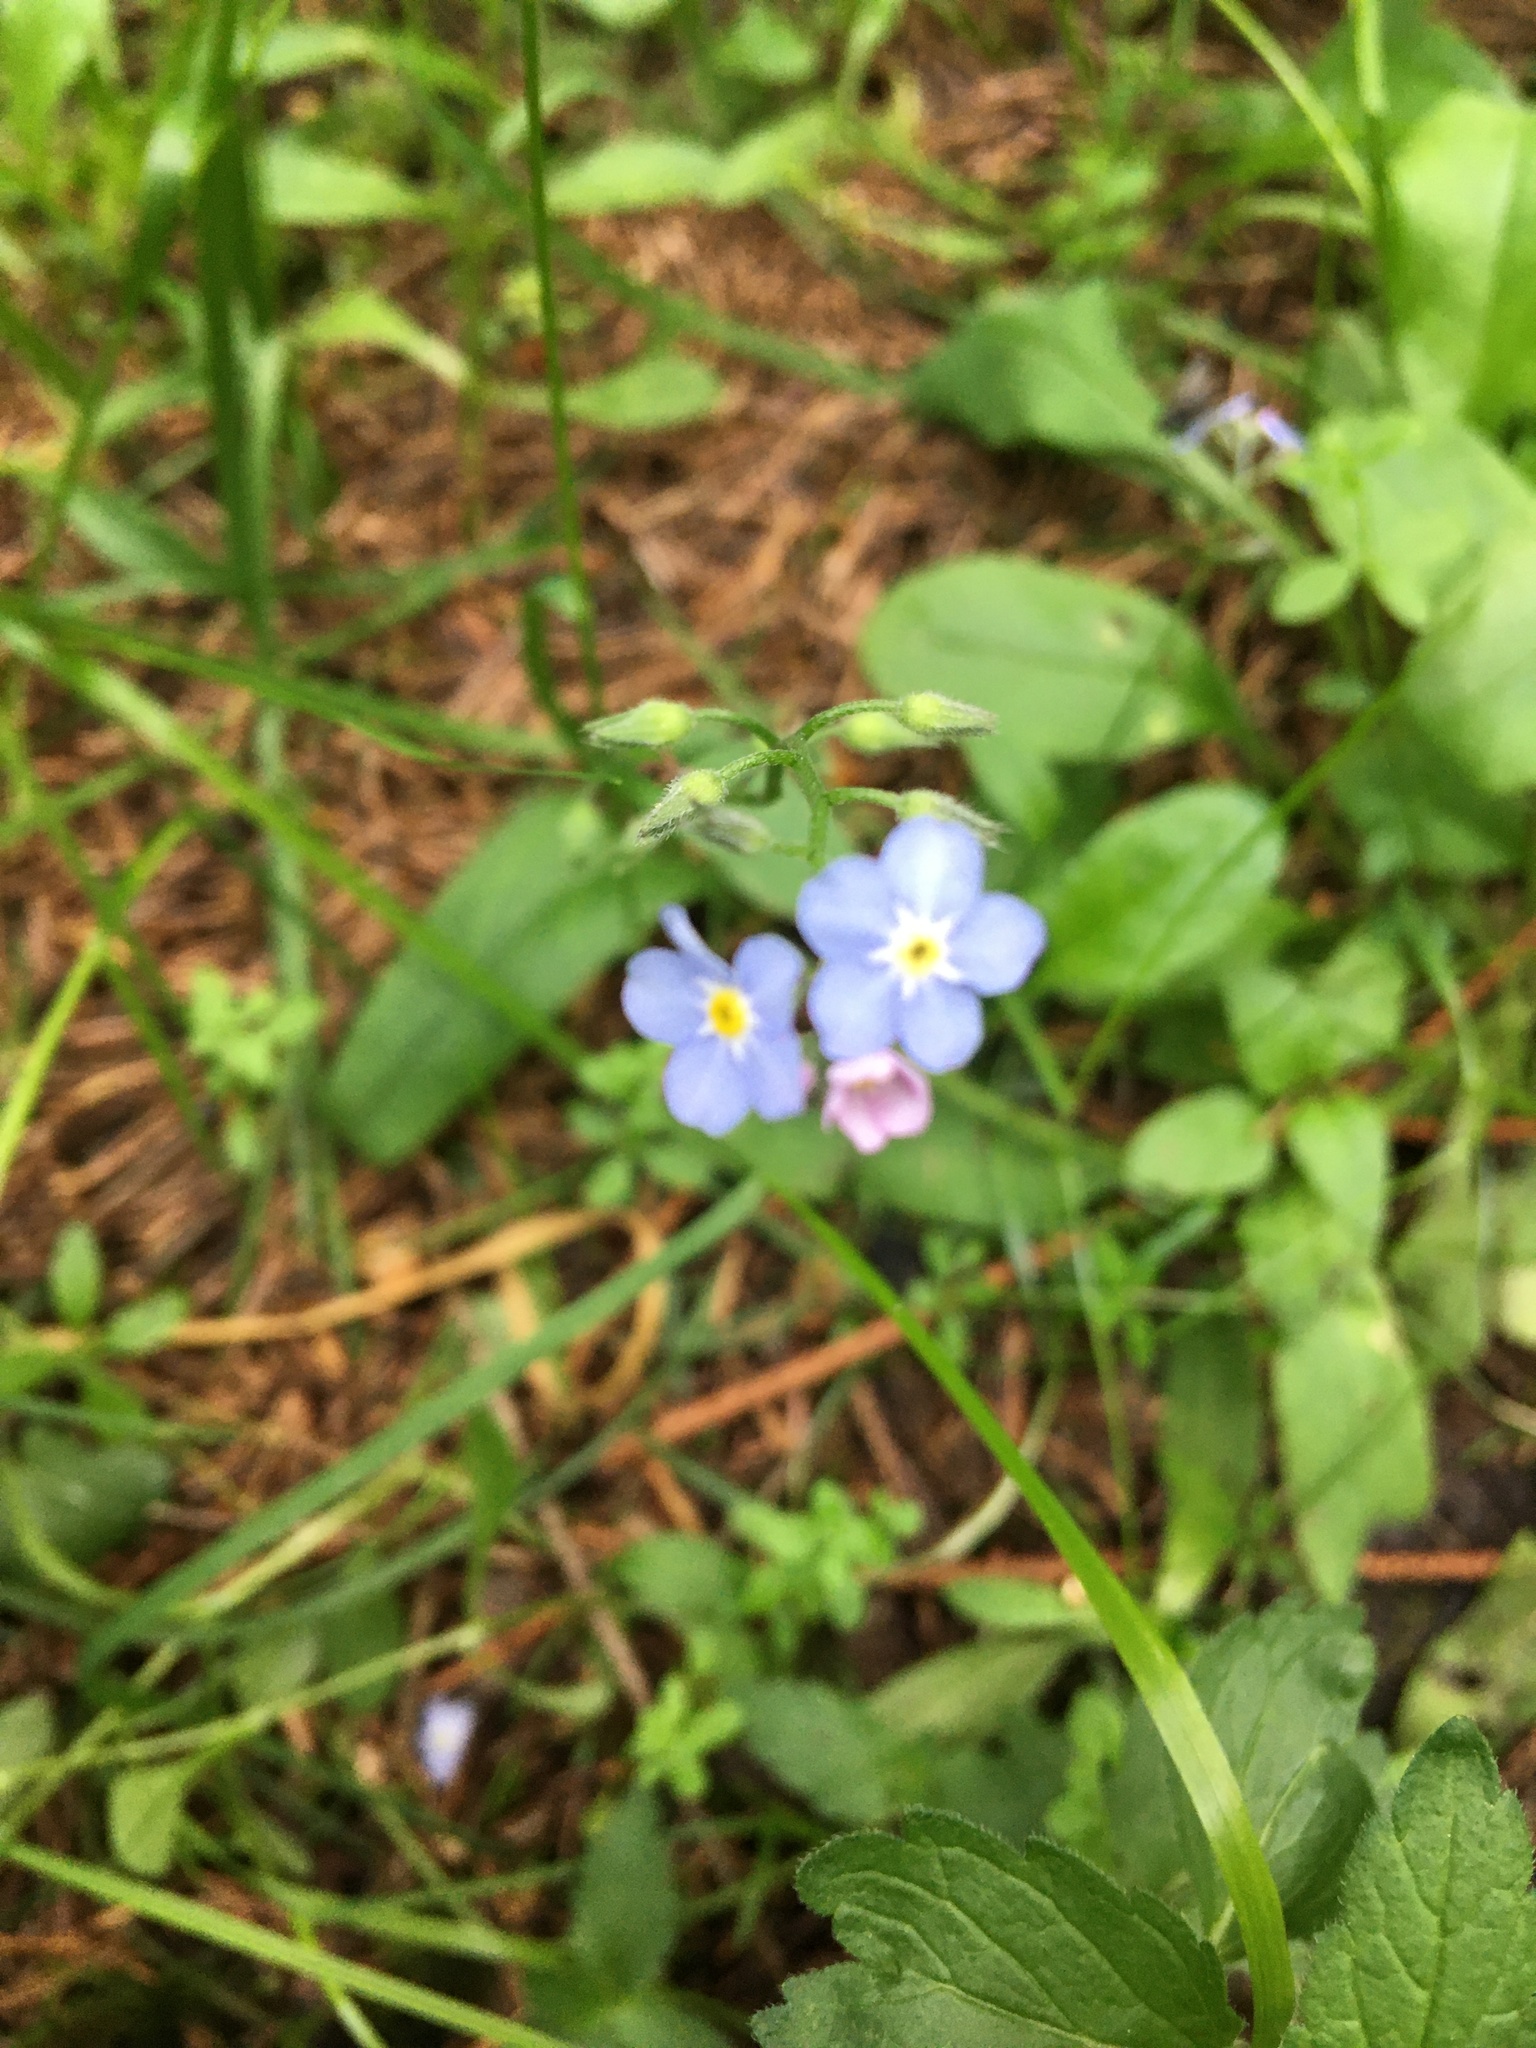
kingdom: Plantae
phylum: Tracheophyta
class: Magnoliopsida
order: Boraginales
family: Boraginaceae
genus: Myosotis
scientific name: Myosotis sylvatica
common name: Wood forget-me-not
